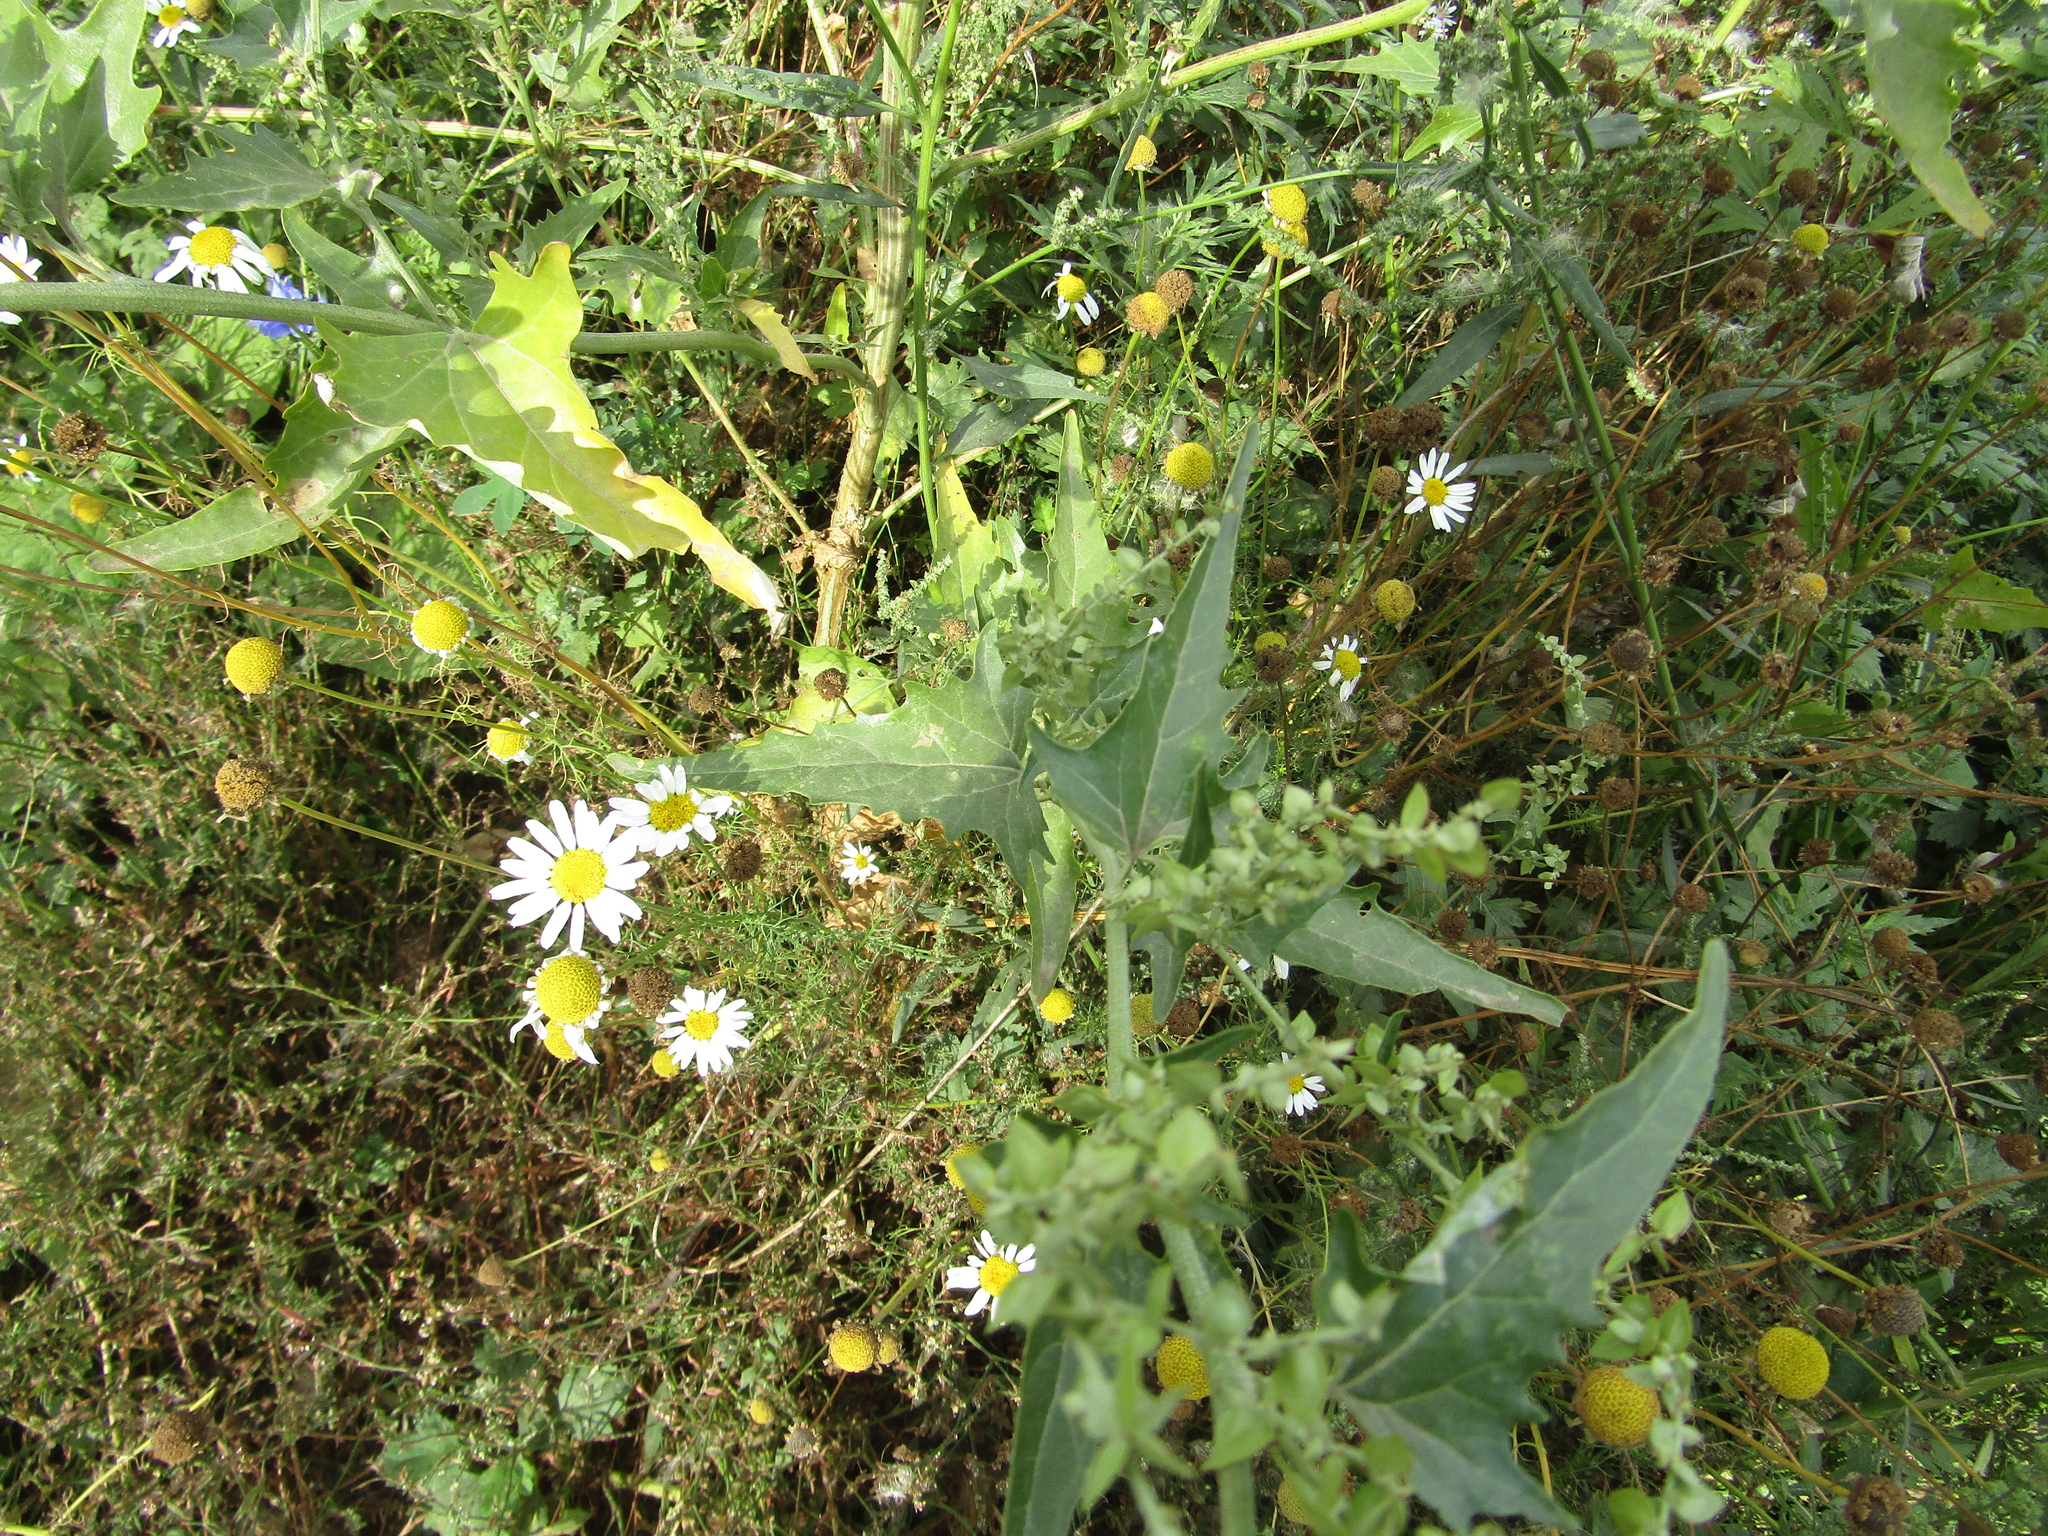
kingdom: Plantae
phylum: Tracheophyta
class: Magnoliopsida
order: Caryophyllales
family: Amaranthaceae
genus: Atriplex
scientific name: Atriplex sagittata
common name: Purple orache
